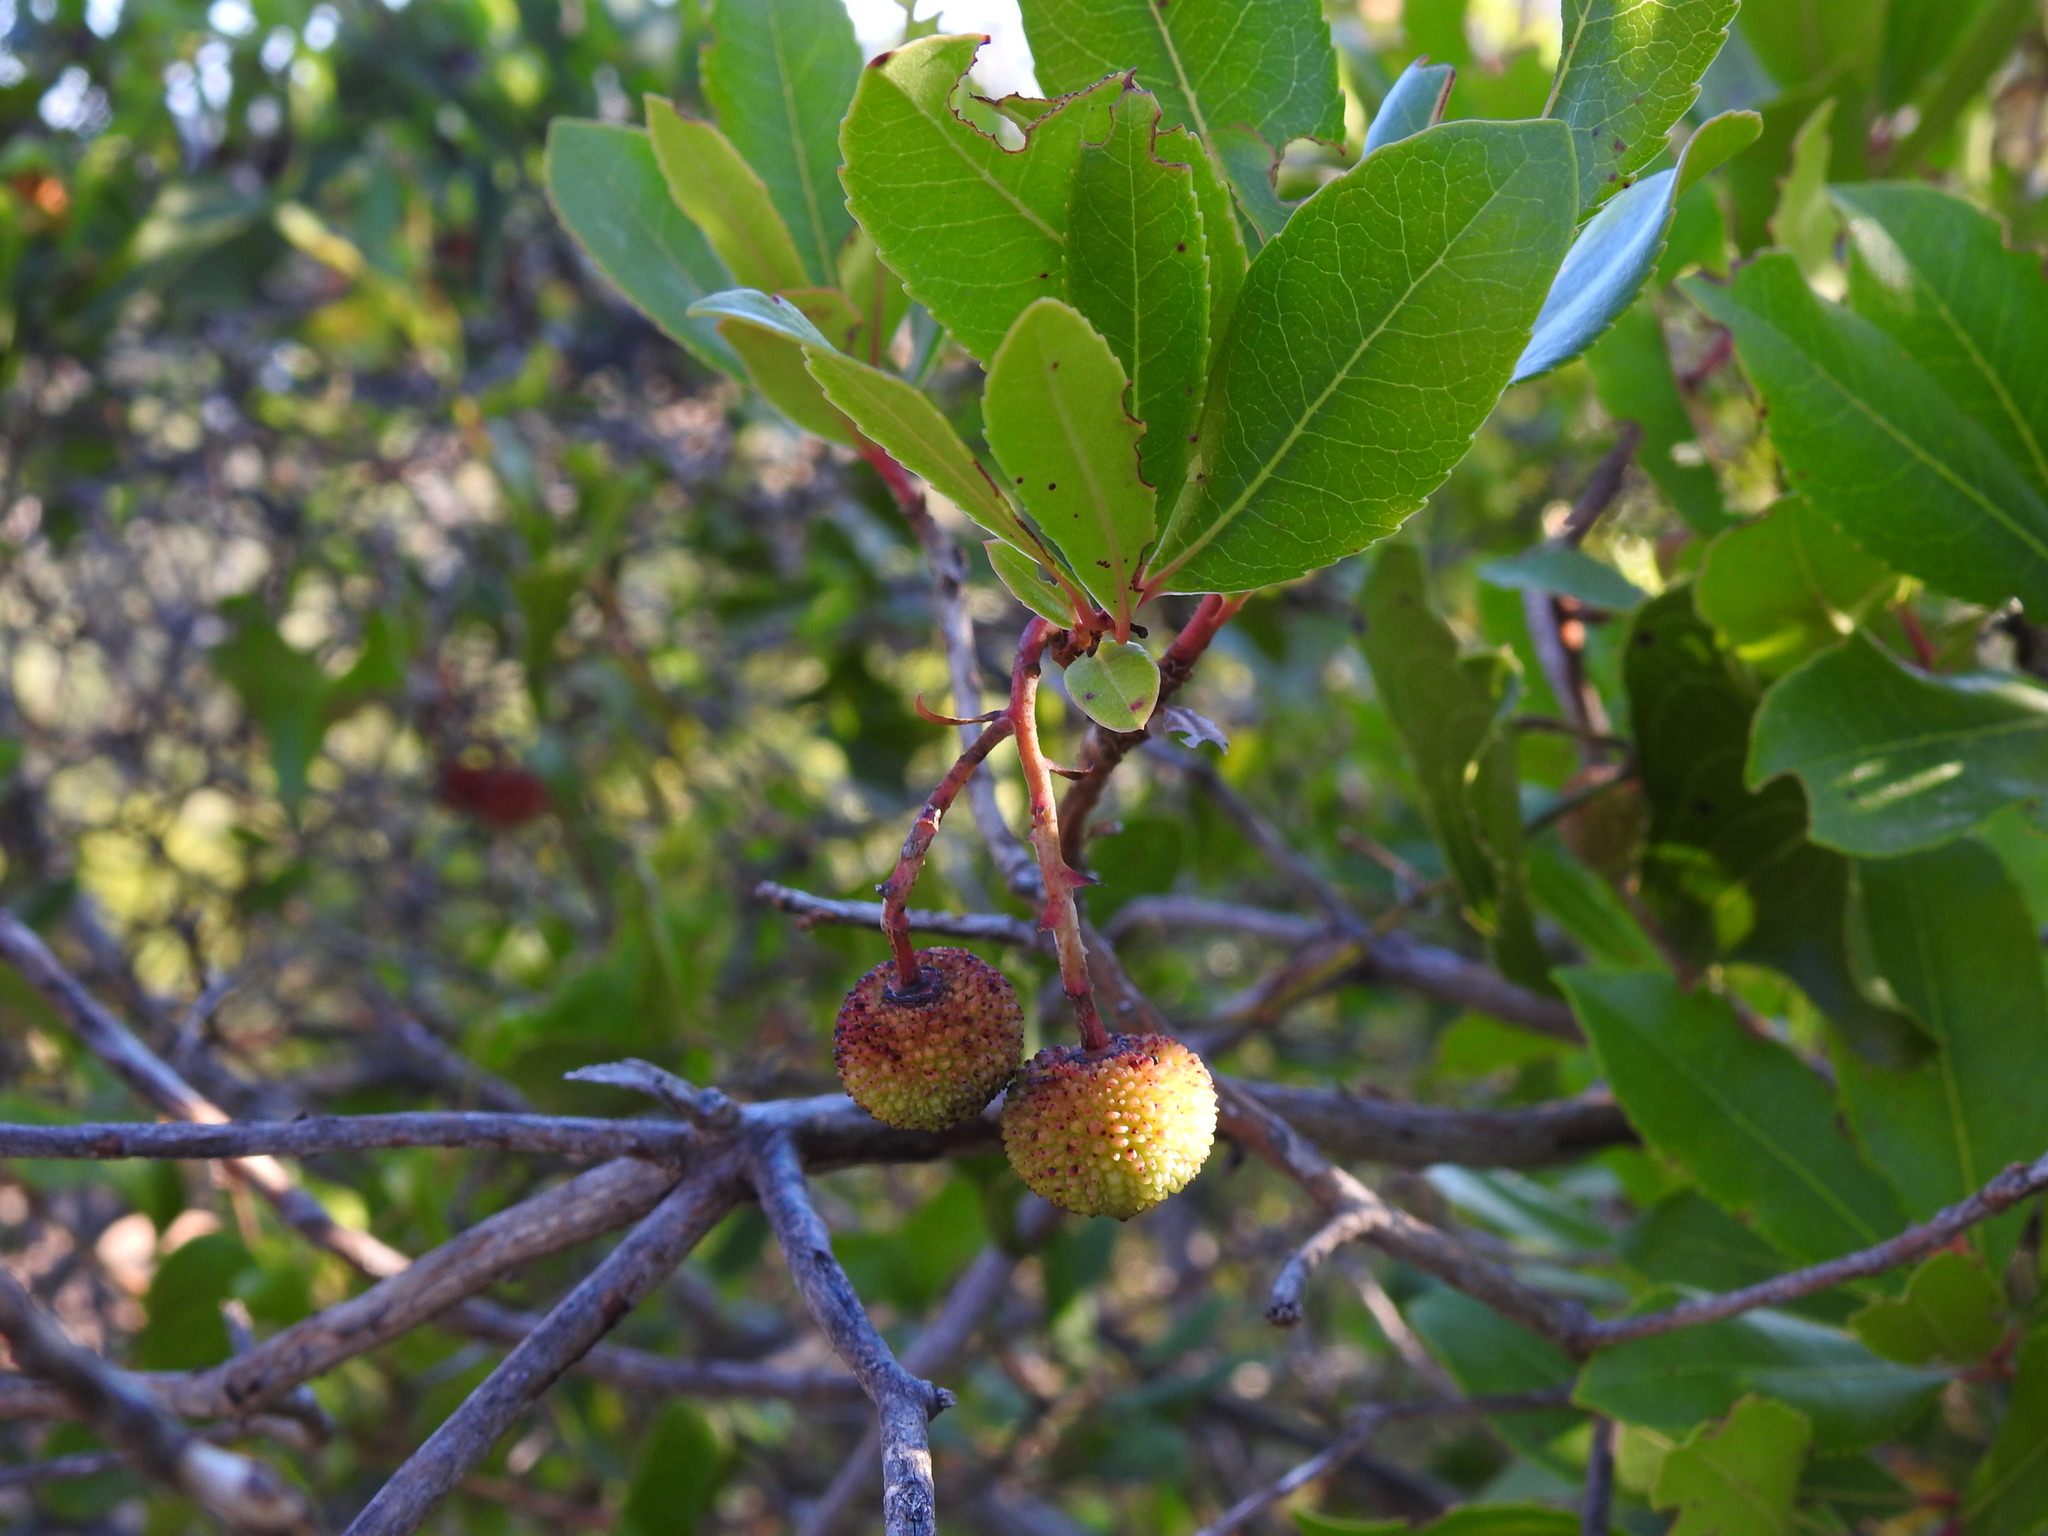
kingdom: Plantae
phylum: Tracheophyta
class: Magnoliopsida
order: Ericales
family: Ericaceae
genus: Arbutus
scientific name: Arbutus unedo
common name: Strawberry-tree
